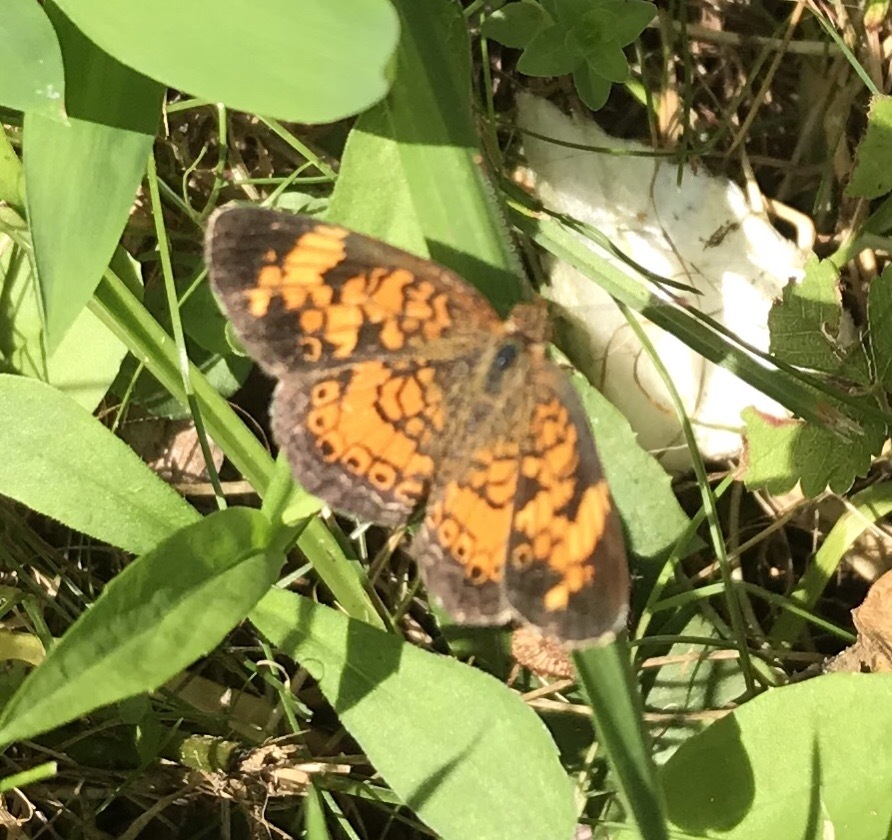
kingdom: Animalia
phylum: Arthropoda
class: Insecta
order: Lepidoptera
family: Nymphalidae
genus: Phyciodes
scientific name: Phyciodes tharos
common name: Pearl crescent
